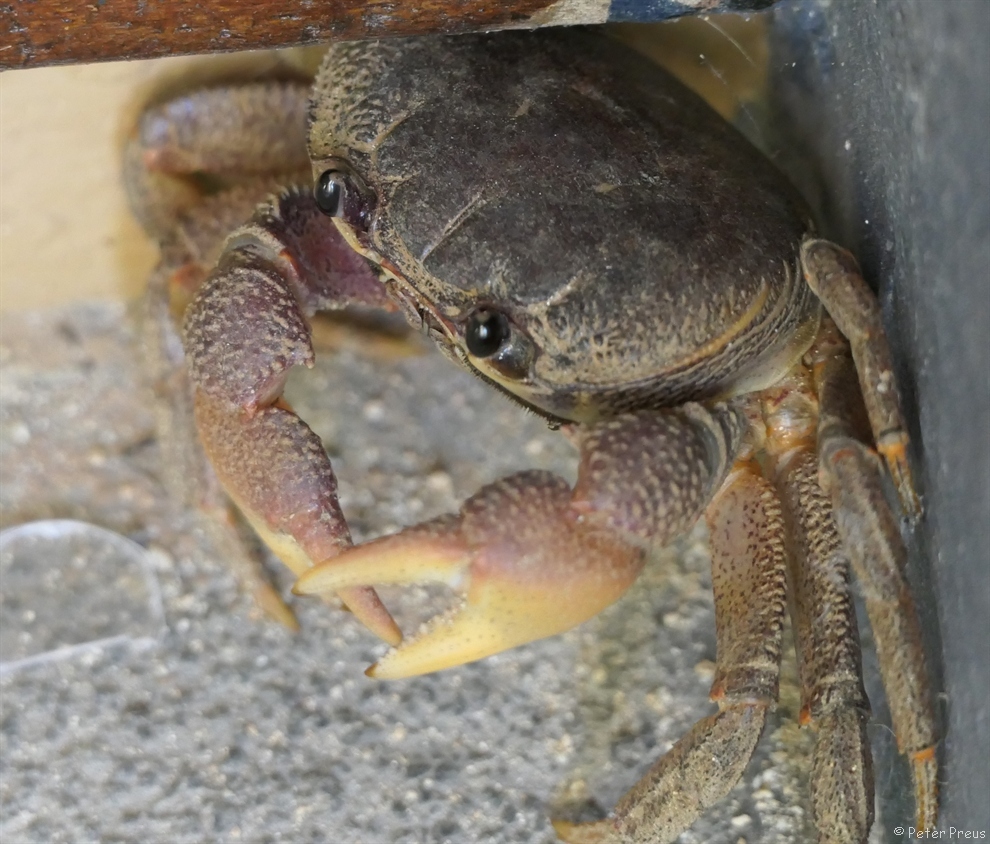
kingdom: Animalia
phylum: Arthropoda
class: Malacostraca
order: Decapoda
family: Gecarcinidae
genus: Tuerkayana
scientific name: Tuerkayana rotundum
